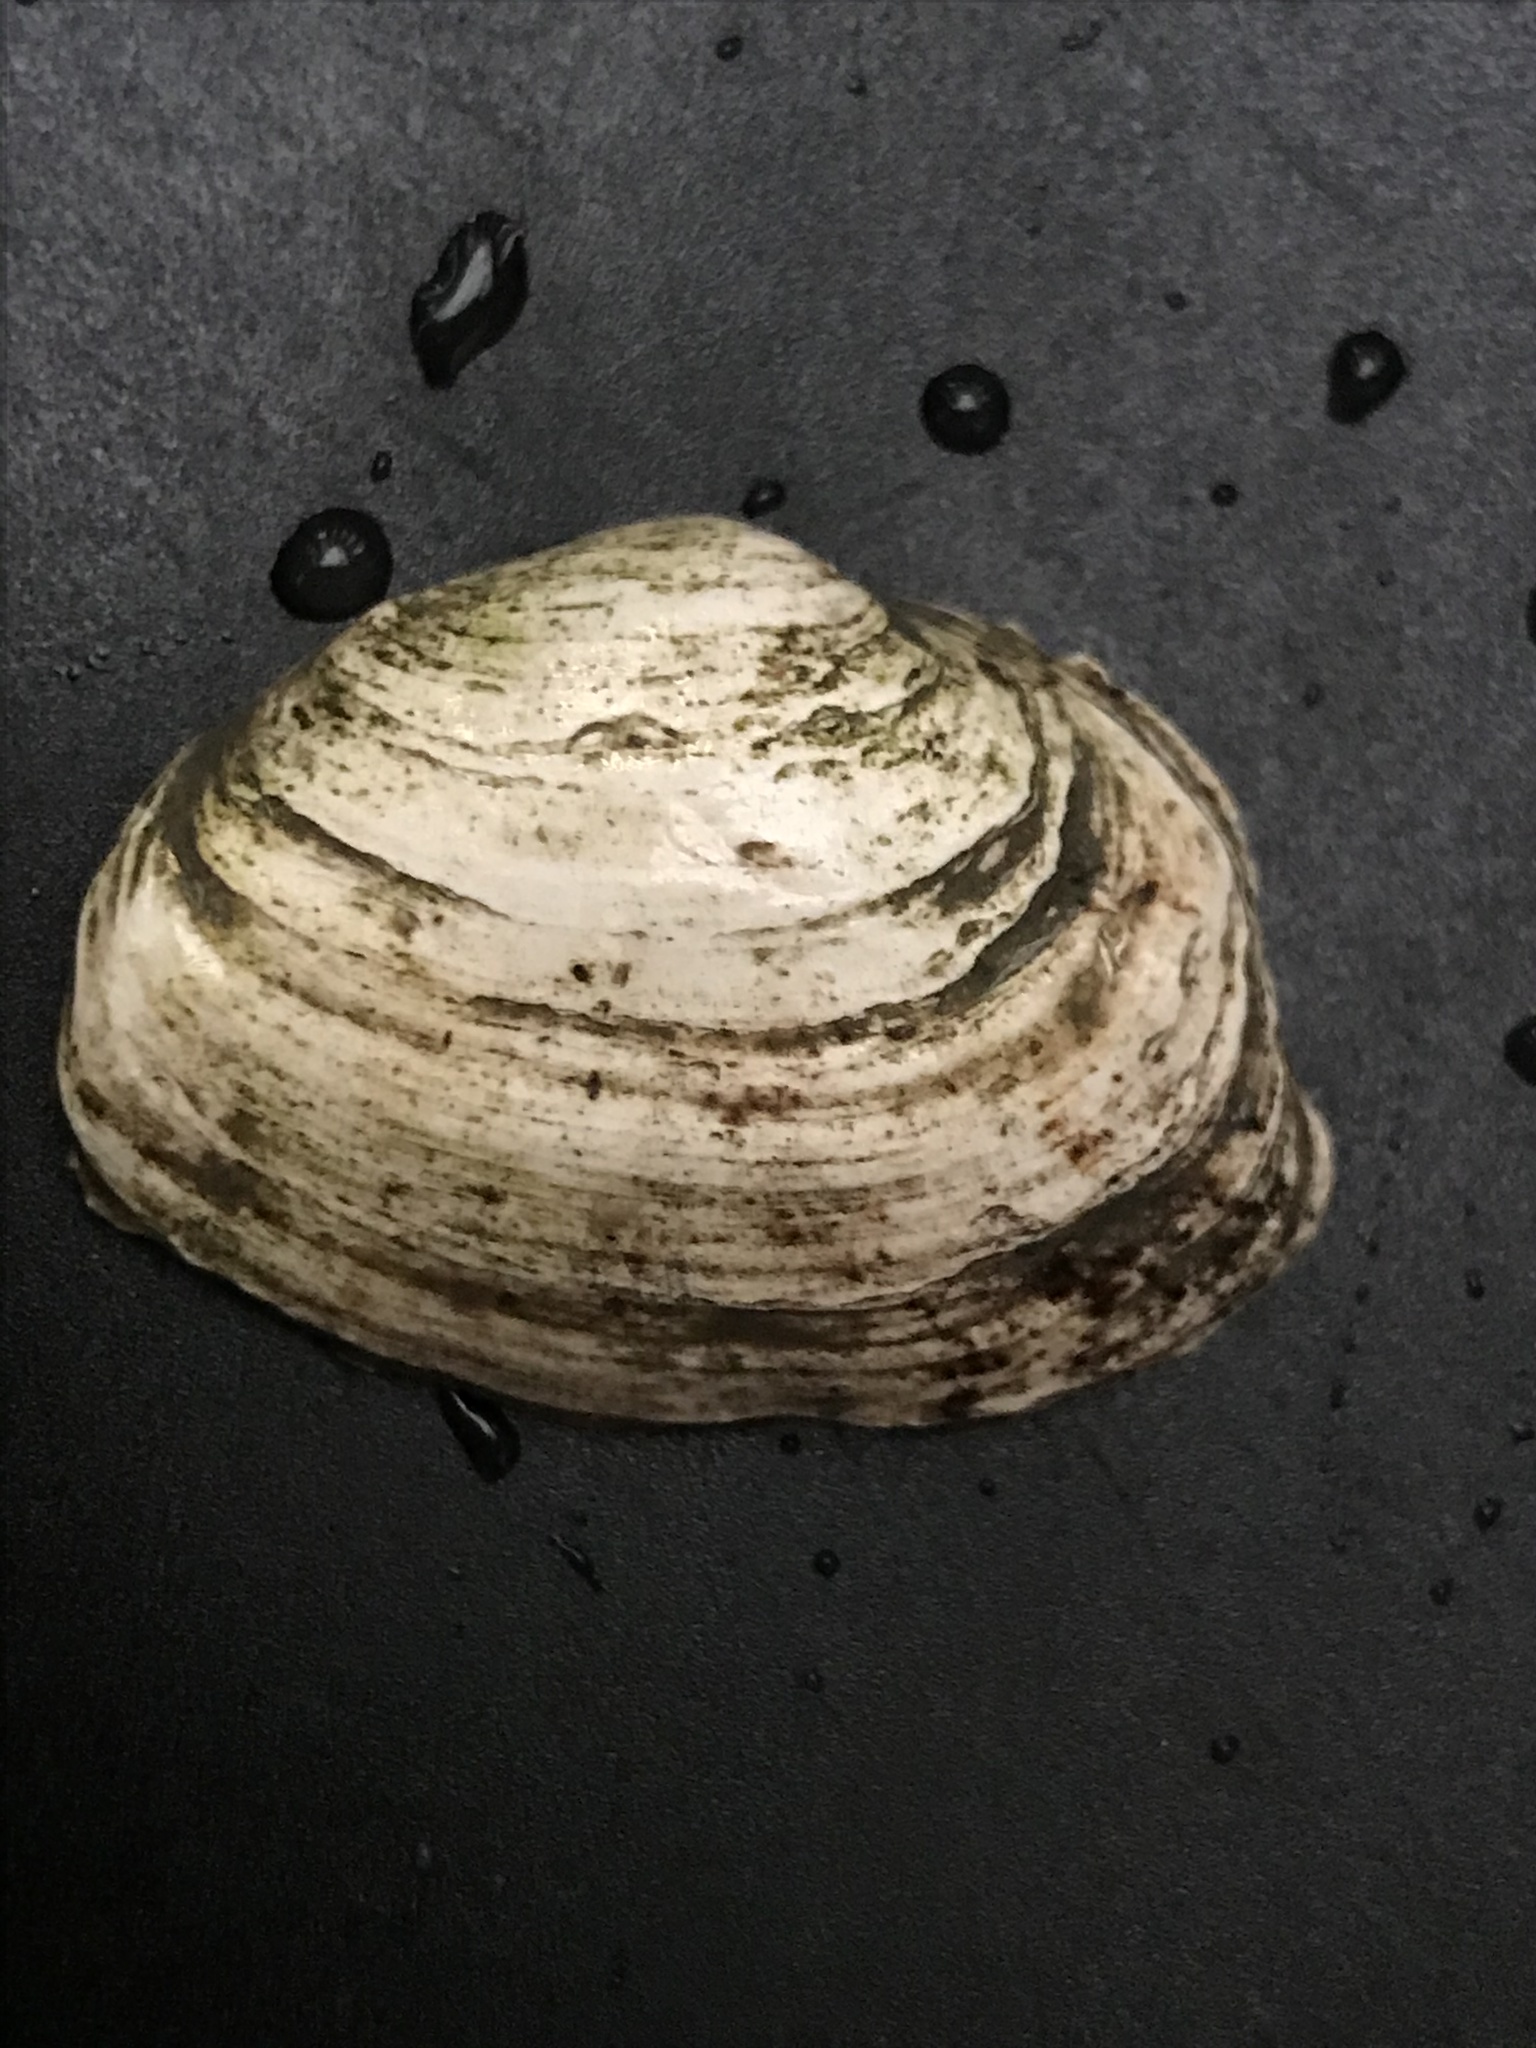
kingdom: Animalia
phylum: Mollusca
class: Bivalvia
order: Myida
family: Myidae
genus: Mya
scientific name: Mya arenaria
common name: Soft-shelled clam
